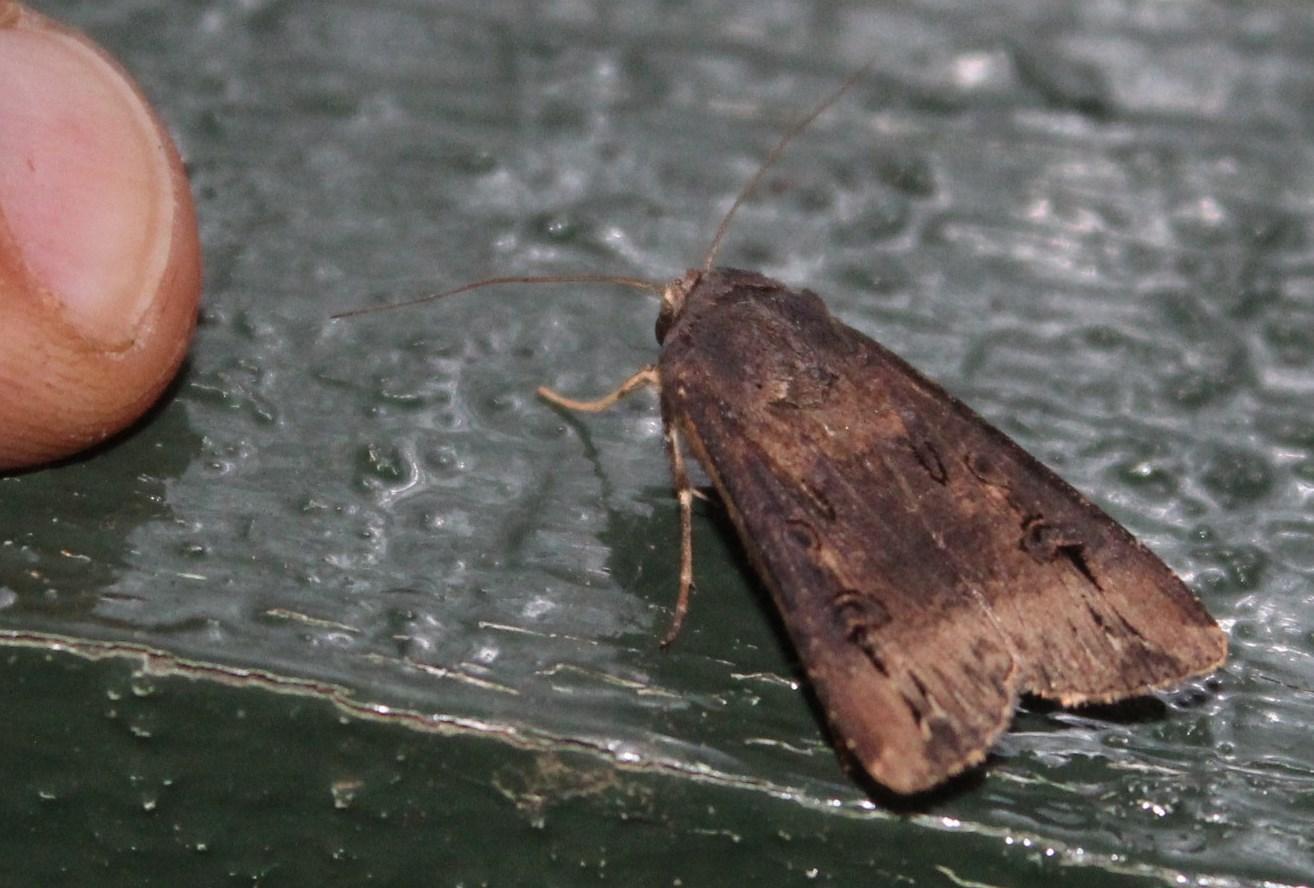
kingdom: Animalia
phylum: Arthropoda
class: Insecta
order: Lepidoptera
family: Noctuidae
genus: Agrotis
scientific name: Agrotis ipsilon
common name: Dark sword-grass
